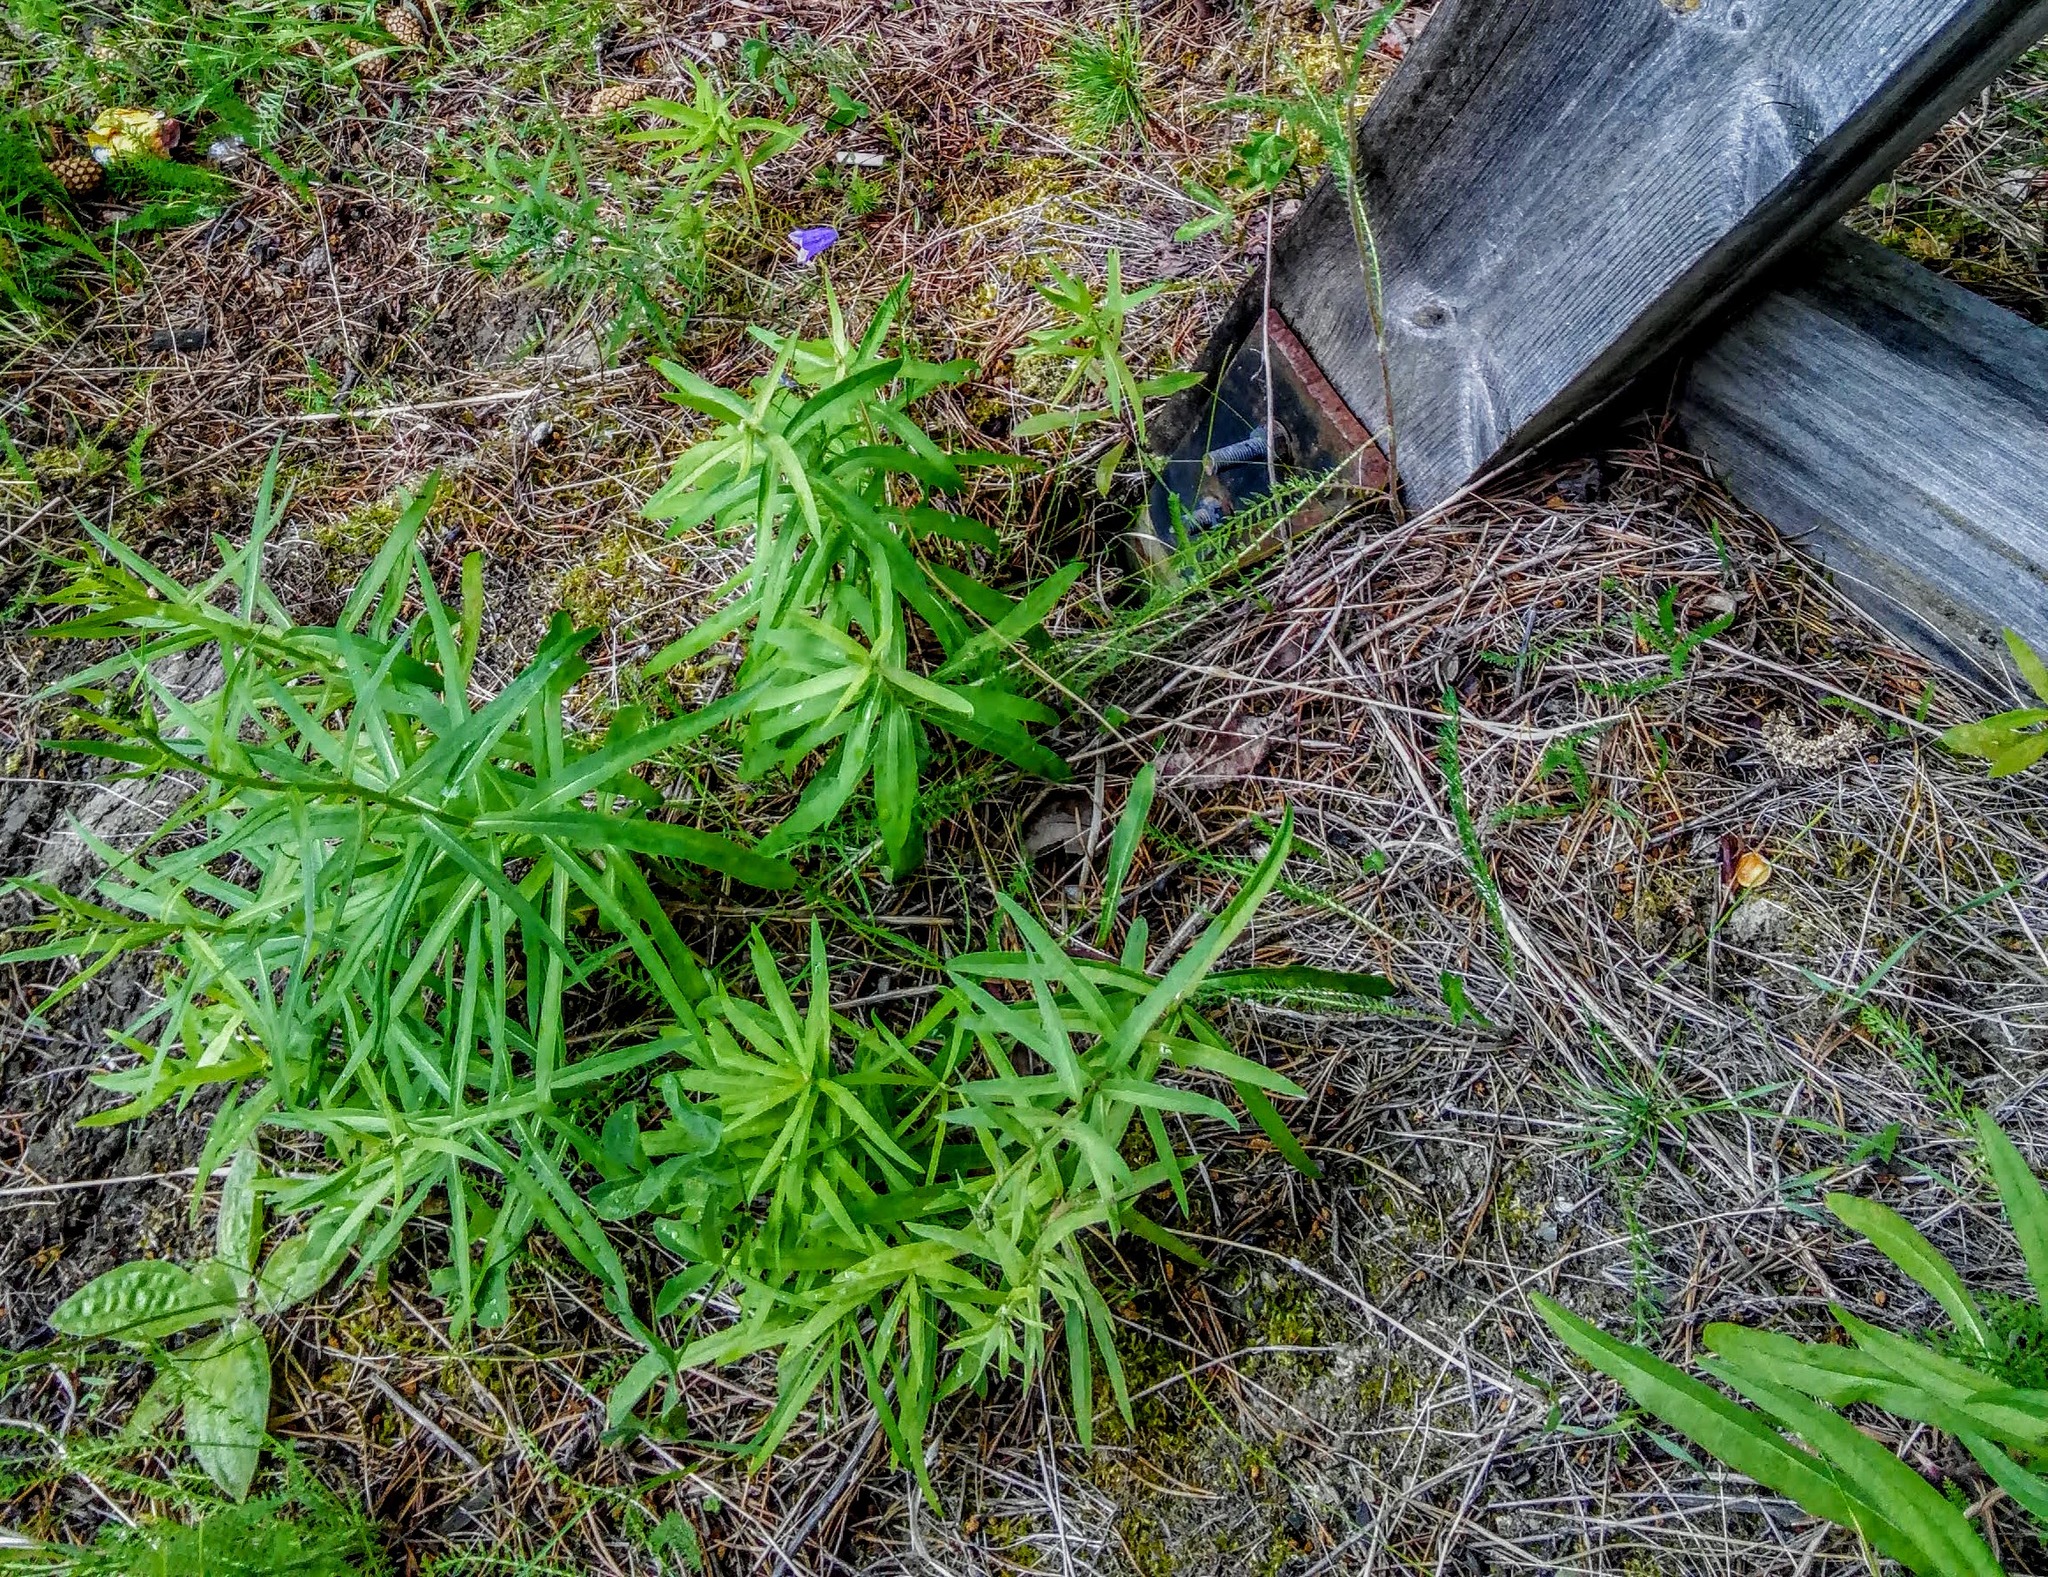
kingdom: Plantae
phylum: Tracheophyta
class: Magnoliopsida
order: Myrtales
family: Onagraceae
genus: Chamaenerion
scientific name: Chamaenerion angustifolium
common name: Fireweed
